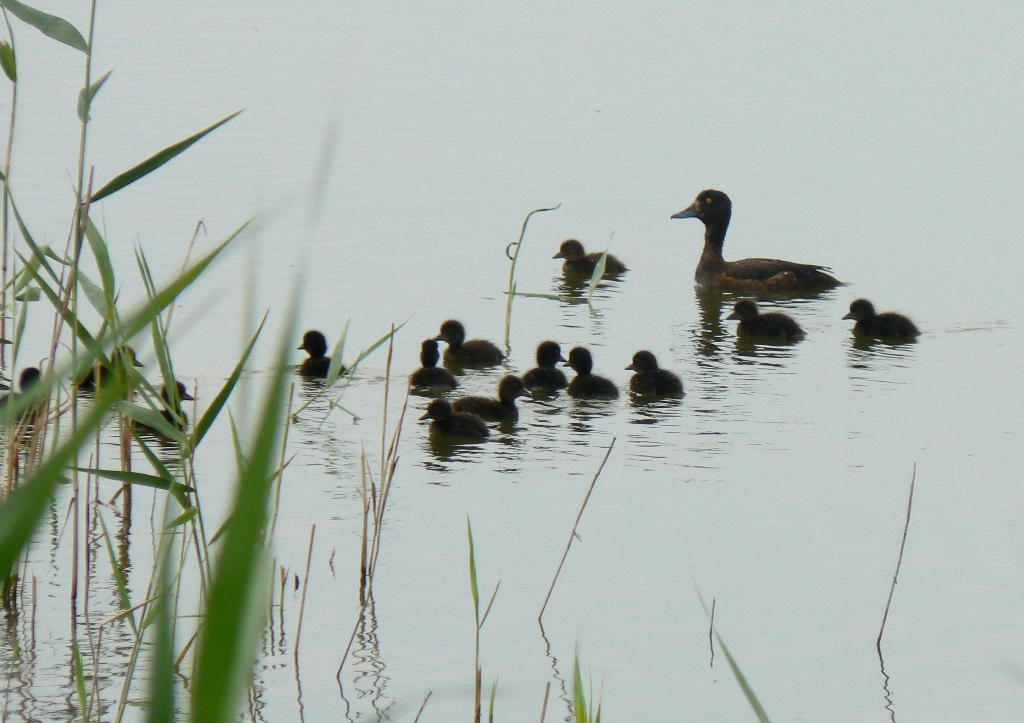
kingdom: Animalia
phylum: Chordata
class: Aves
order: Anseriformes
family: Anatidae
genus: Aythya
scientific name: Aythya fuligula
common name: Tufted duck
